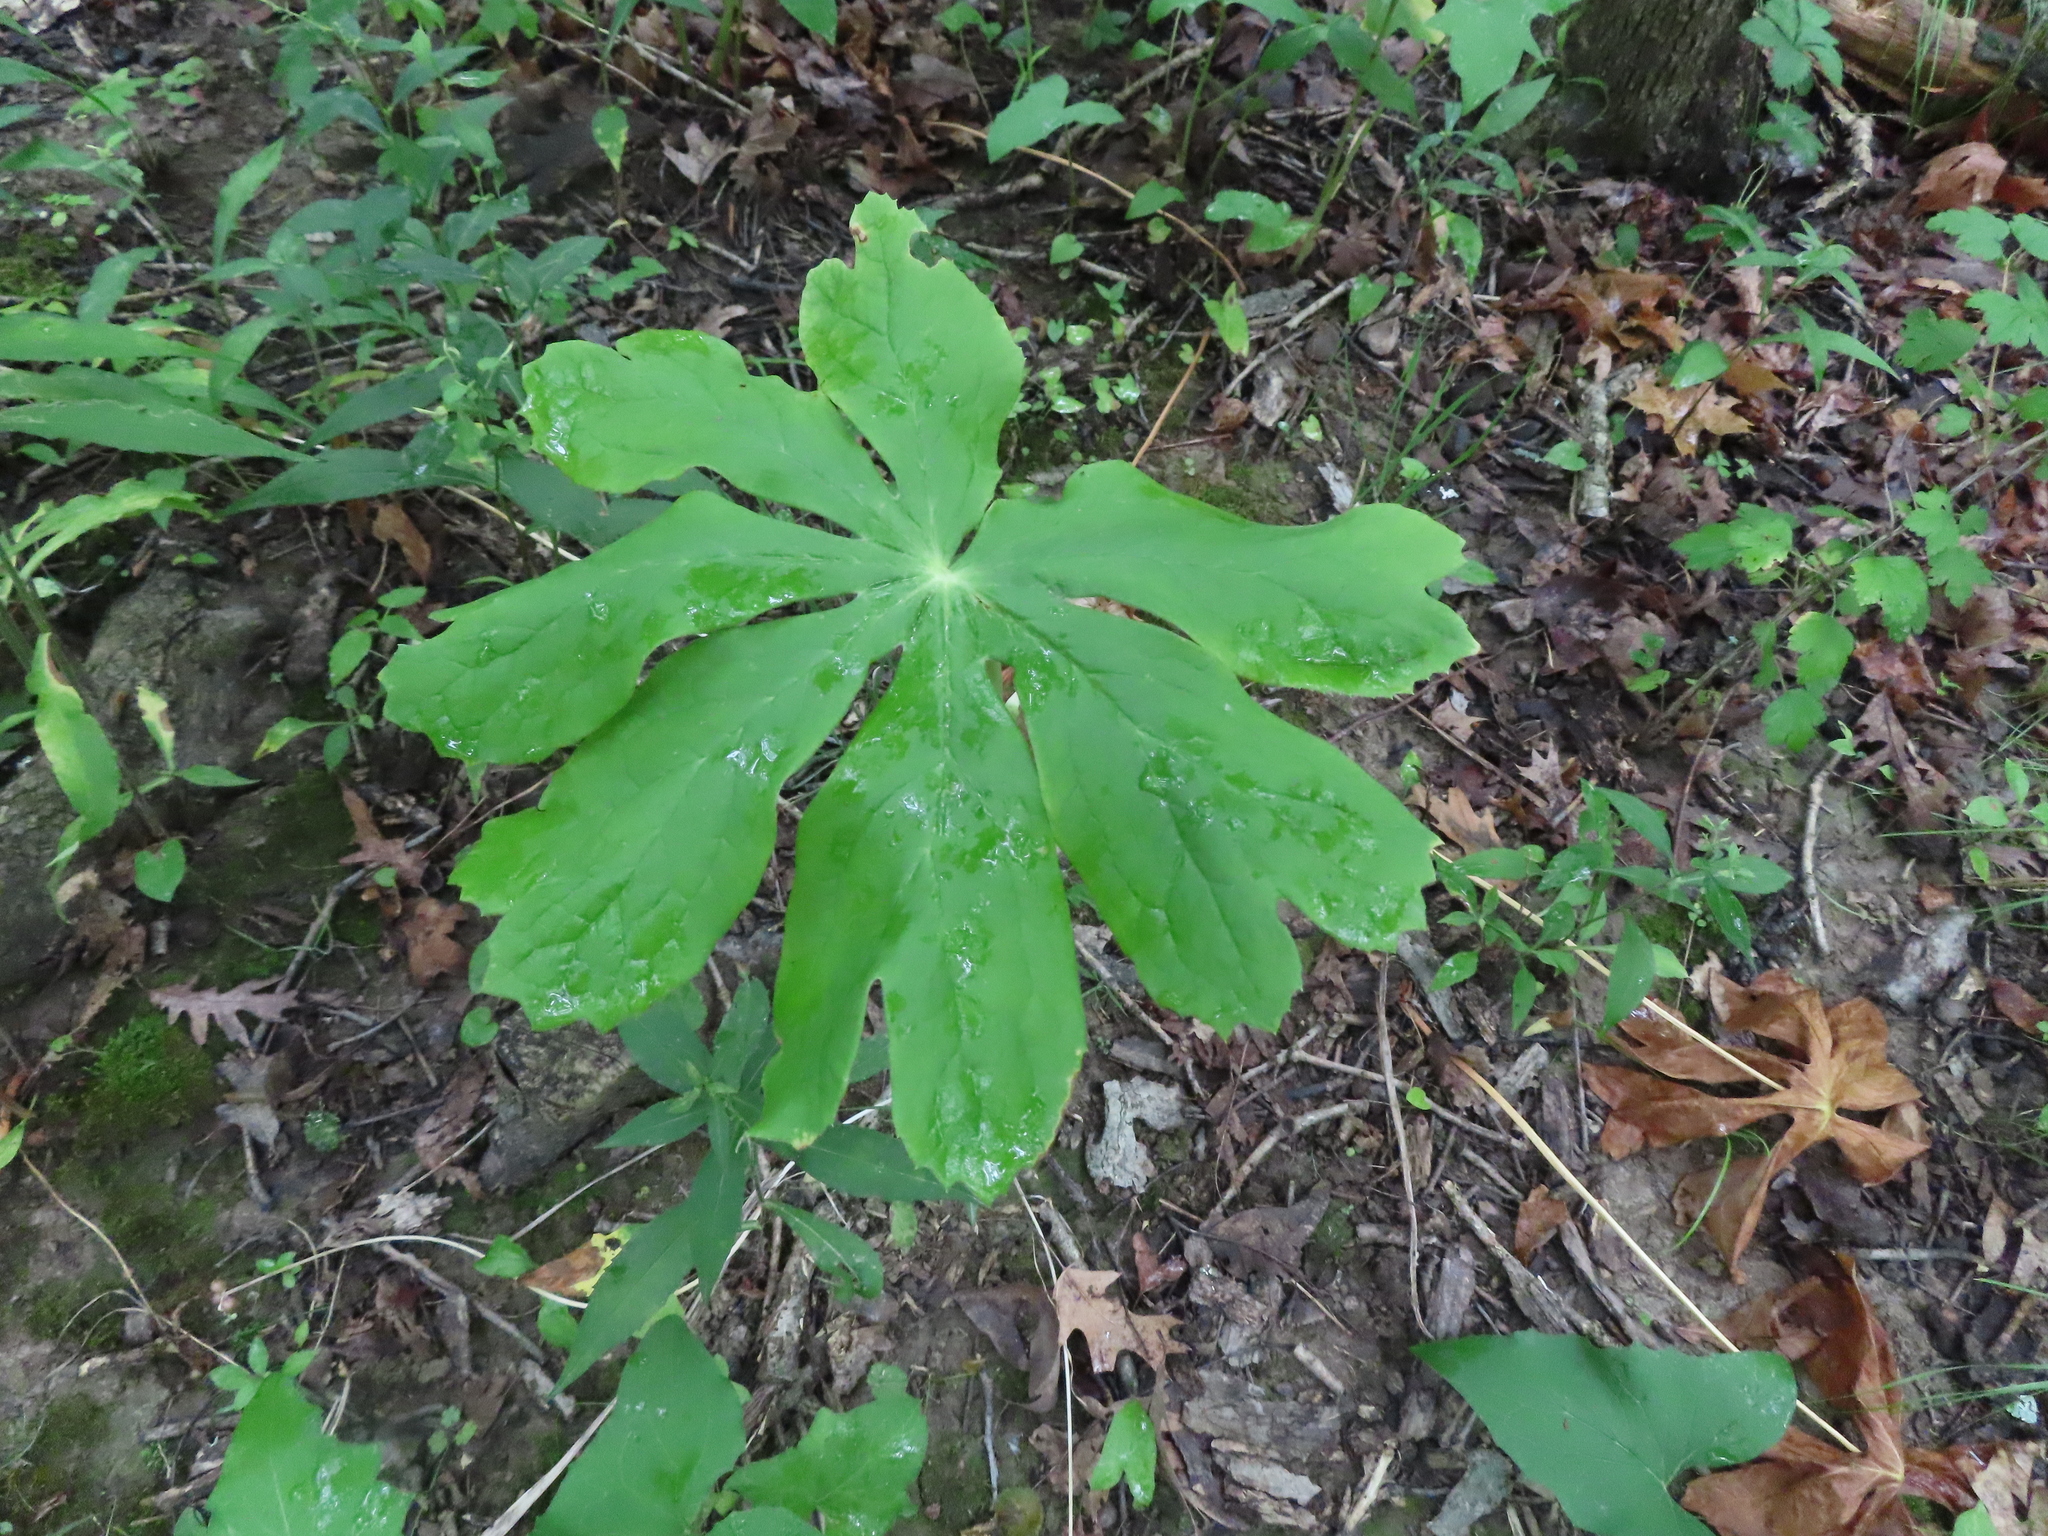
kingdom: Plantae
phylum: Tracheophyta
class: Magnoliopsida
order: Ranunculales
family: Berberidaceae
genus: Podophyllum
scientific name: Podophyllum peltatum
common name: Wild mandrake
